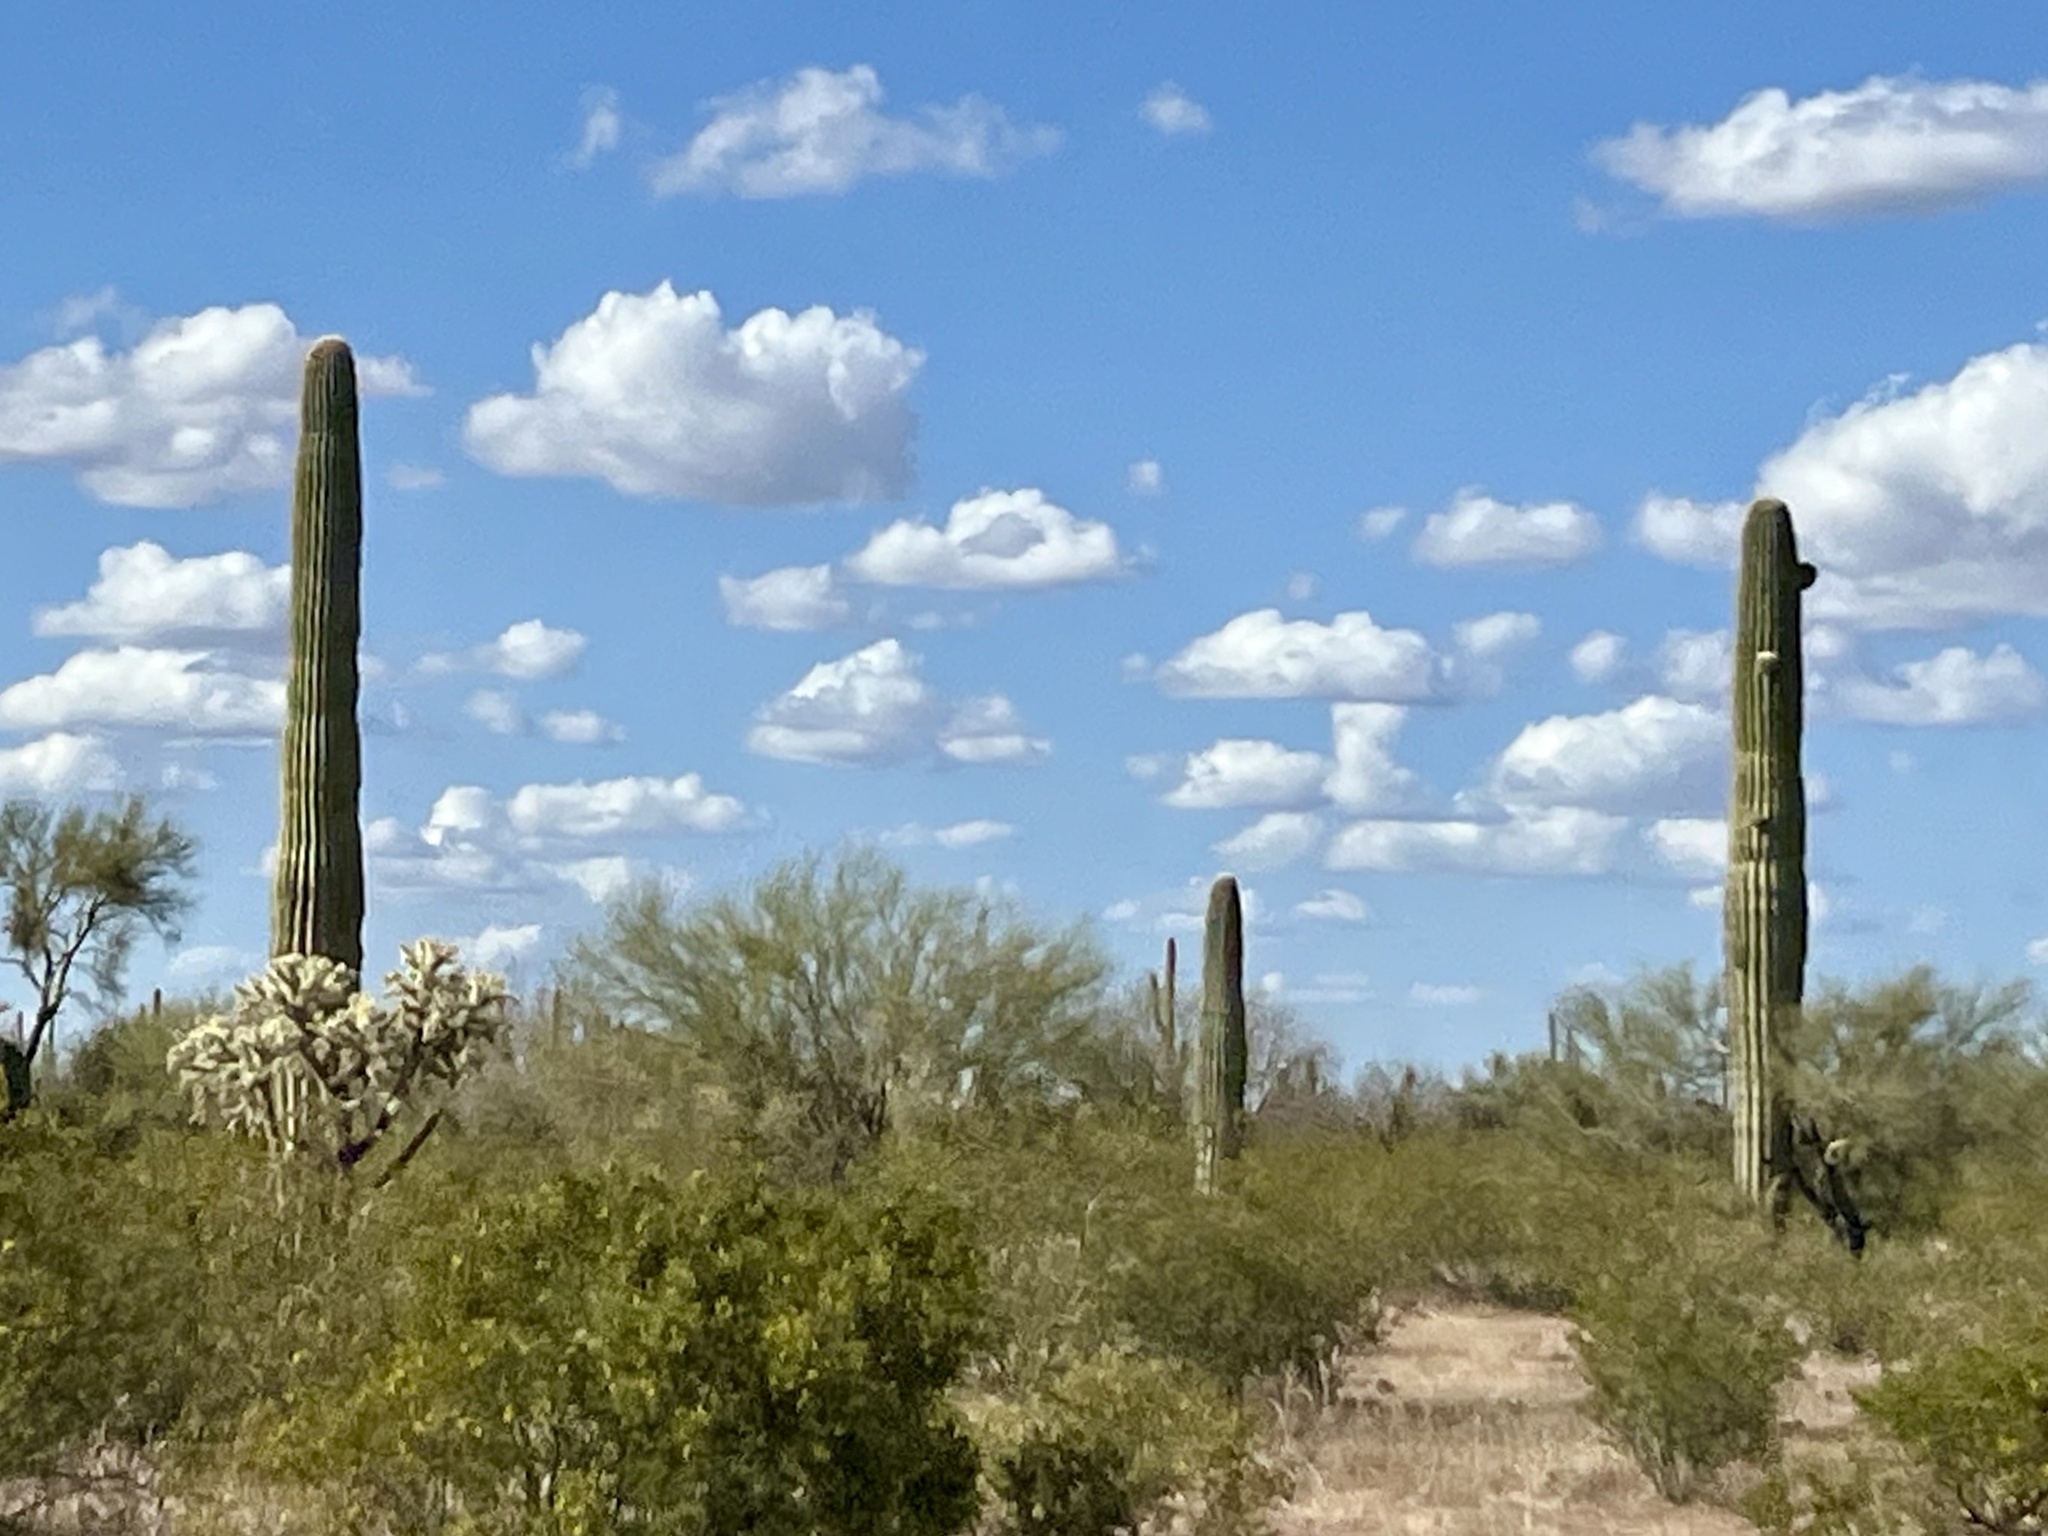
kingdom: Plantae
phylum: Tracheophyta
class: Magnoliopsida
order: Caryophyllales
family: Cactaceae
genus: Carnegiea
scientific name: Carnegiea gigantea
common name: Saguaro
